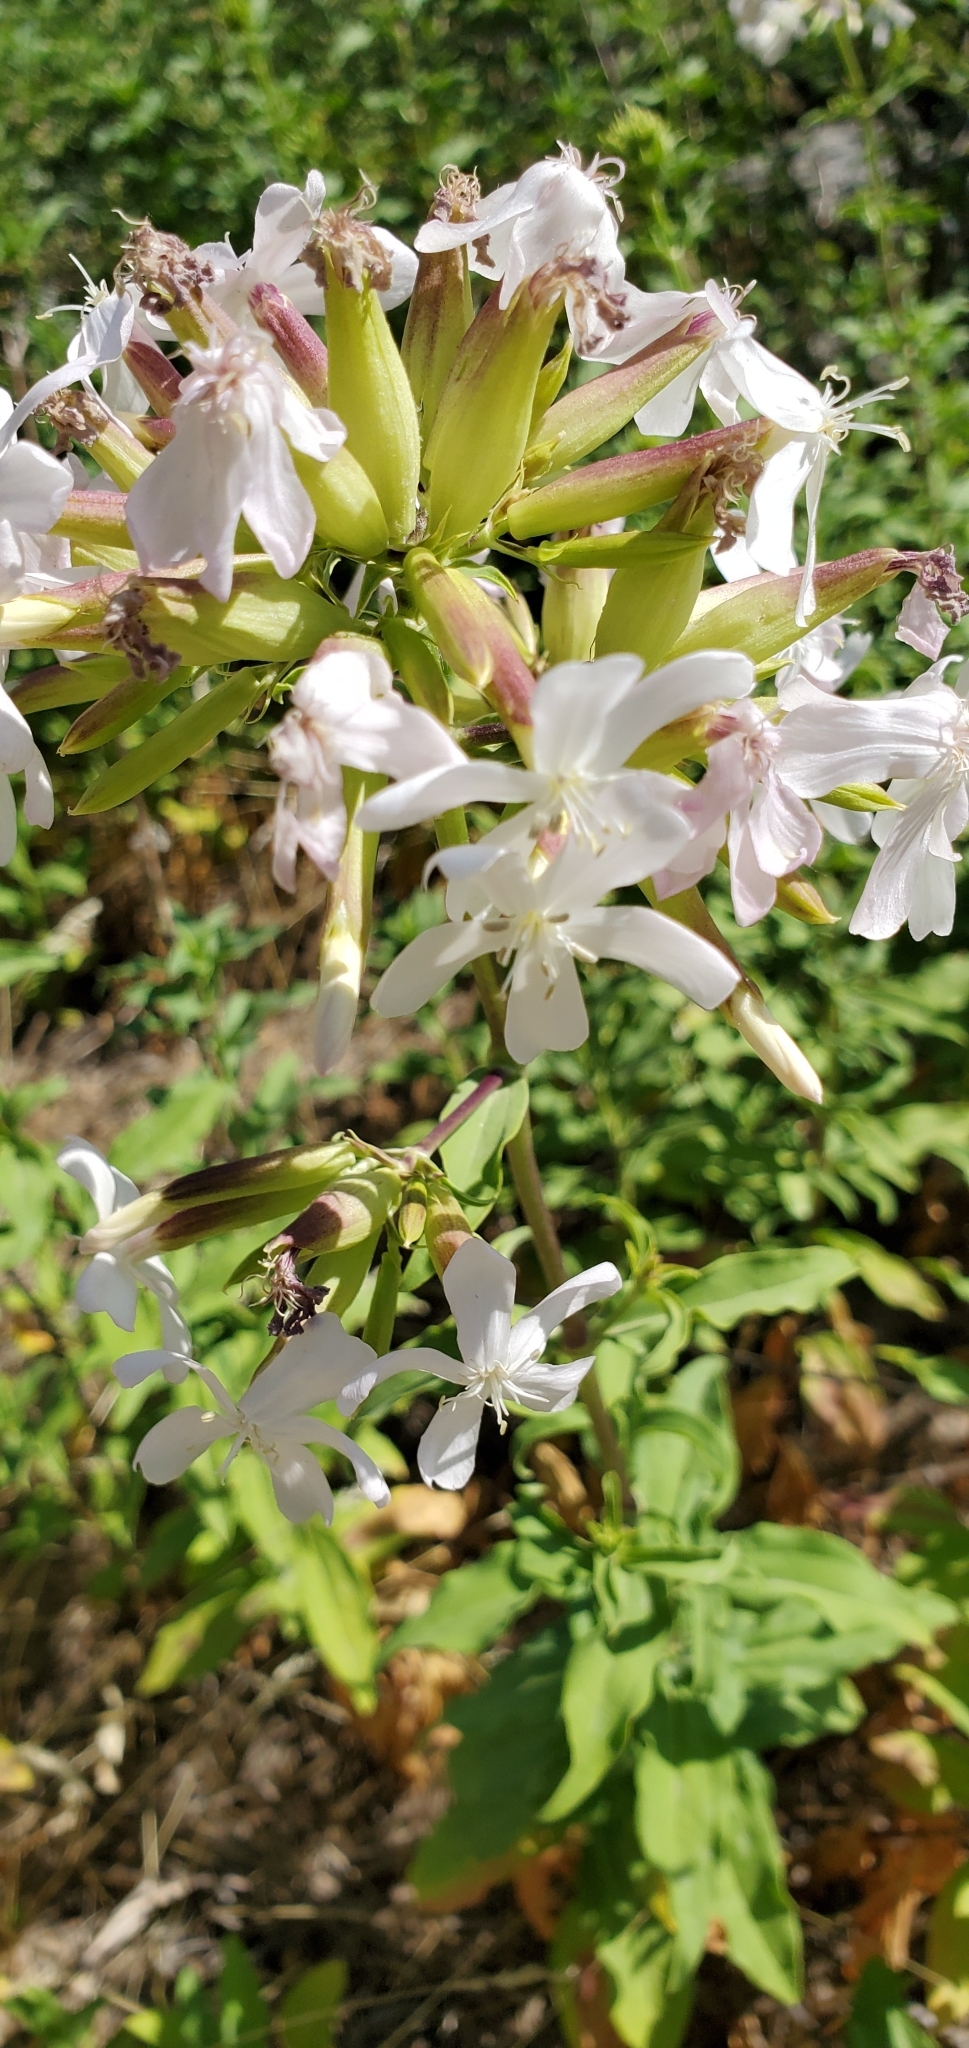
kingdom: Plantae
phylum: Tracheophyta
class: Magnoliopsida
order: Caryophyllales
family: Caryophyllaceae
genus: Saponaria
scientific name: Saponaria officinalis
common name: Soapwort
